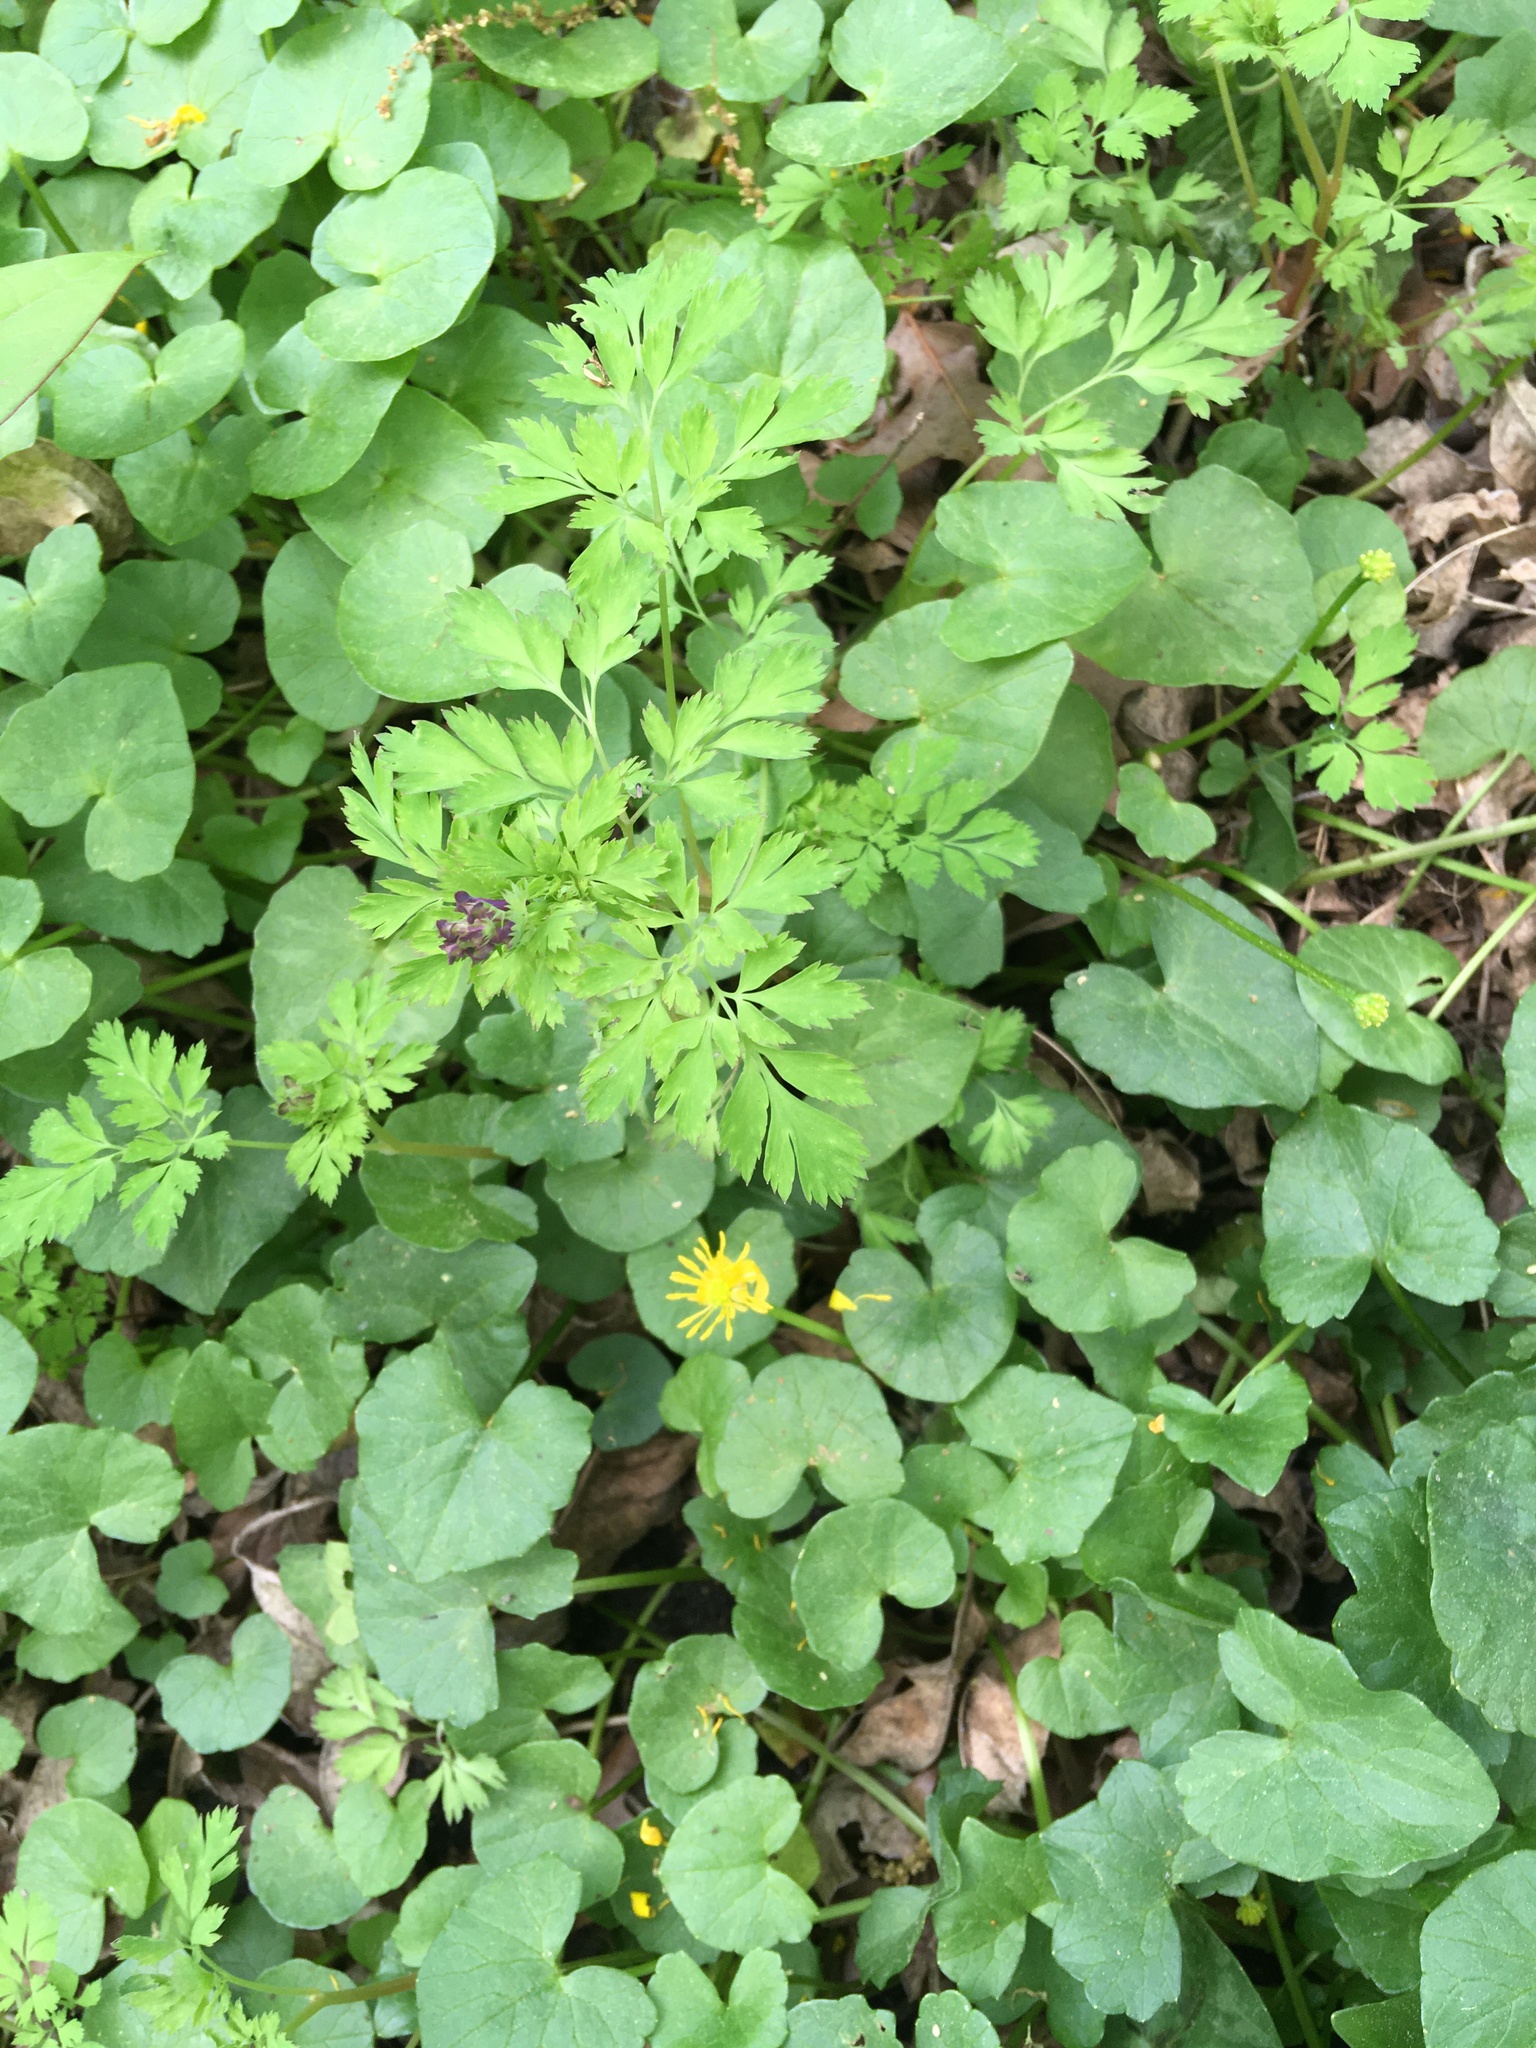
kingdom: Plantae
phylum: Tracheophyta
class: Magnoliopsida
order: Ranunculales
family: Papaveraceae
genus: Corydalis
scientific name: Corydalis incisa
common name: Incised fumewort
